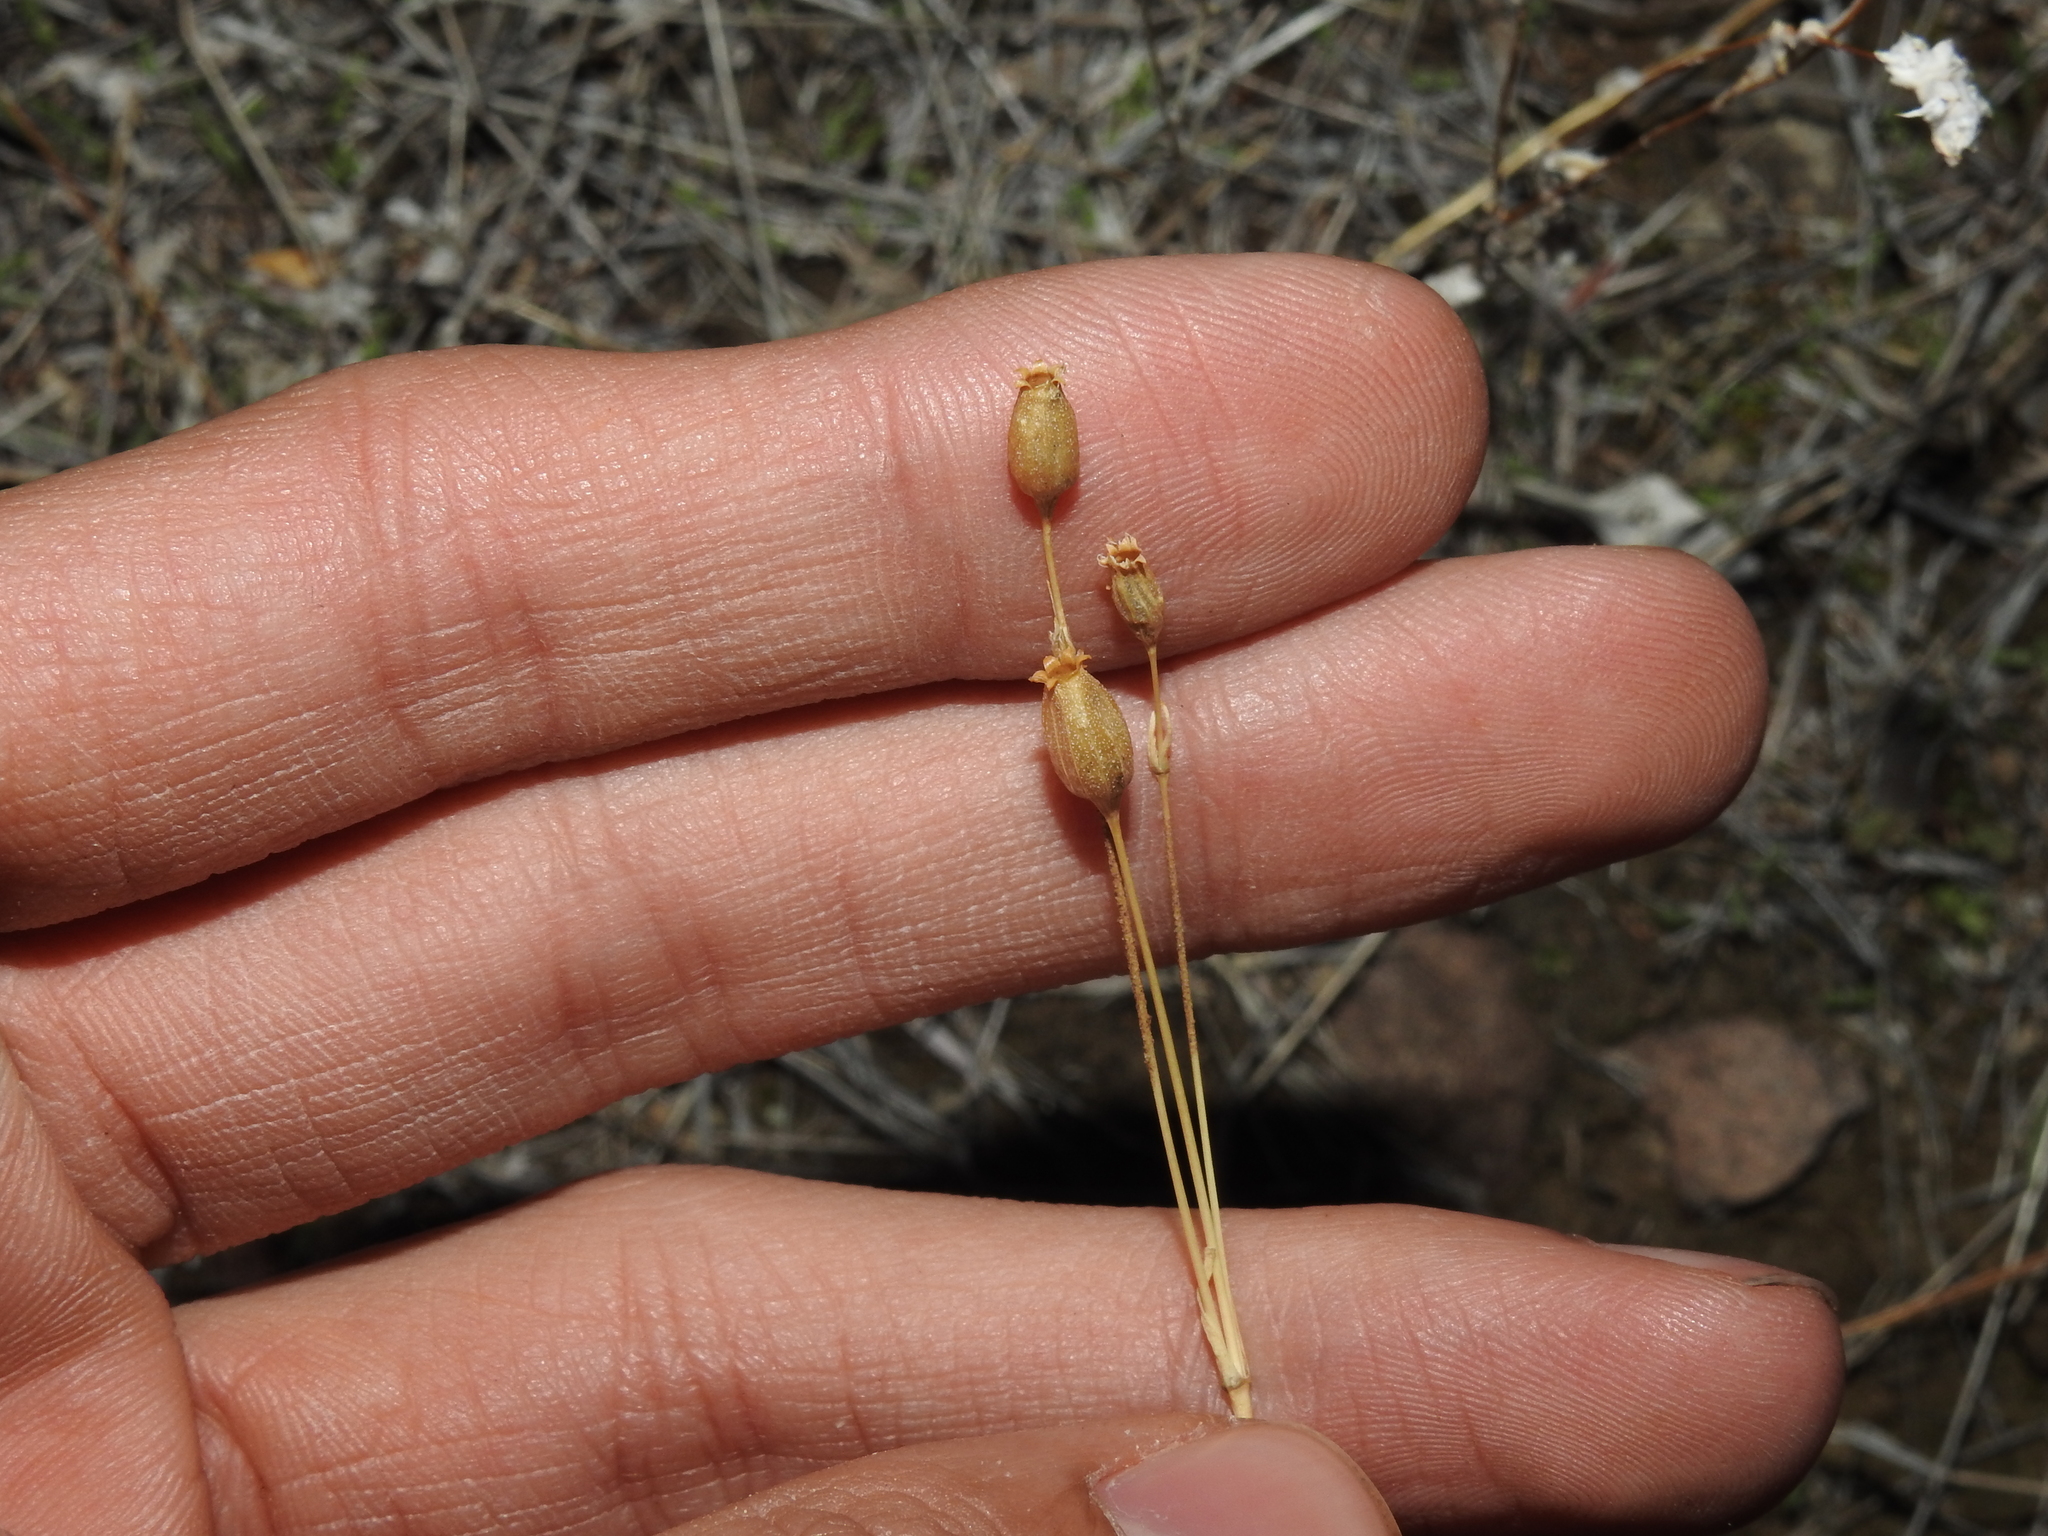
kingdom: Plantae
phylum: Tracheophyta
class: Magnoliopsida
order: Caryophyllales
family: Caryophyllaceae
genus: Silene
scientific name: Silene antirrhina
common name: Sleepy catchfly
